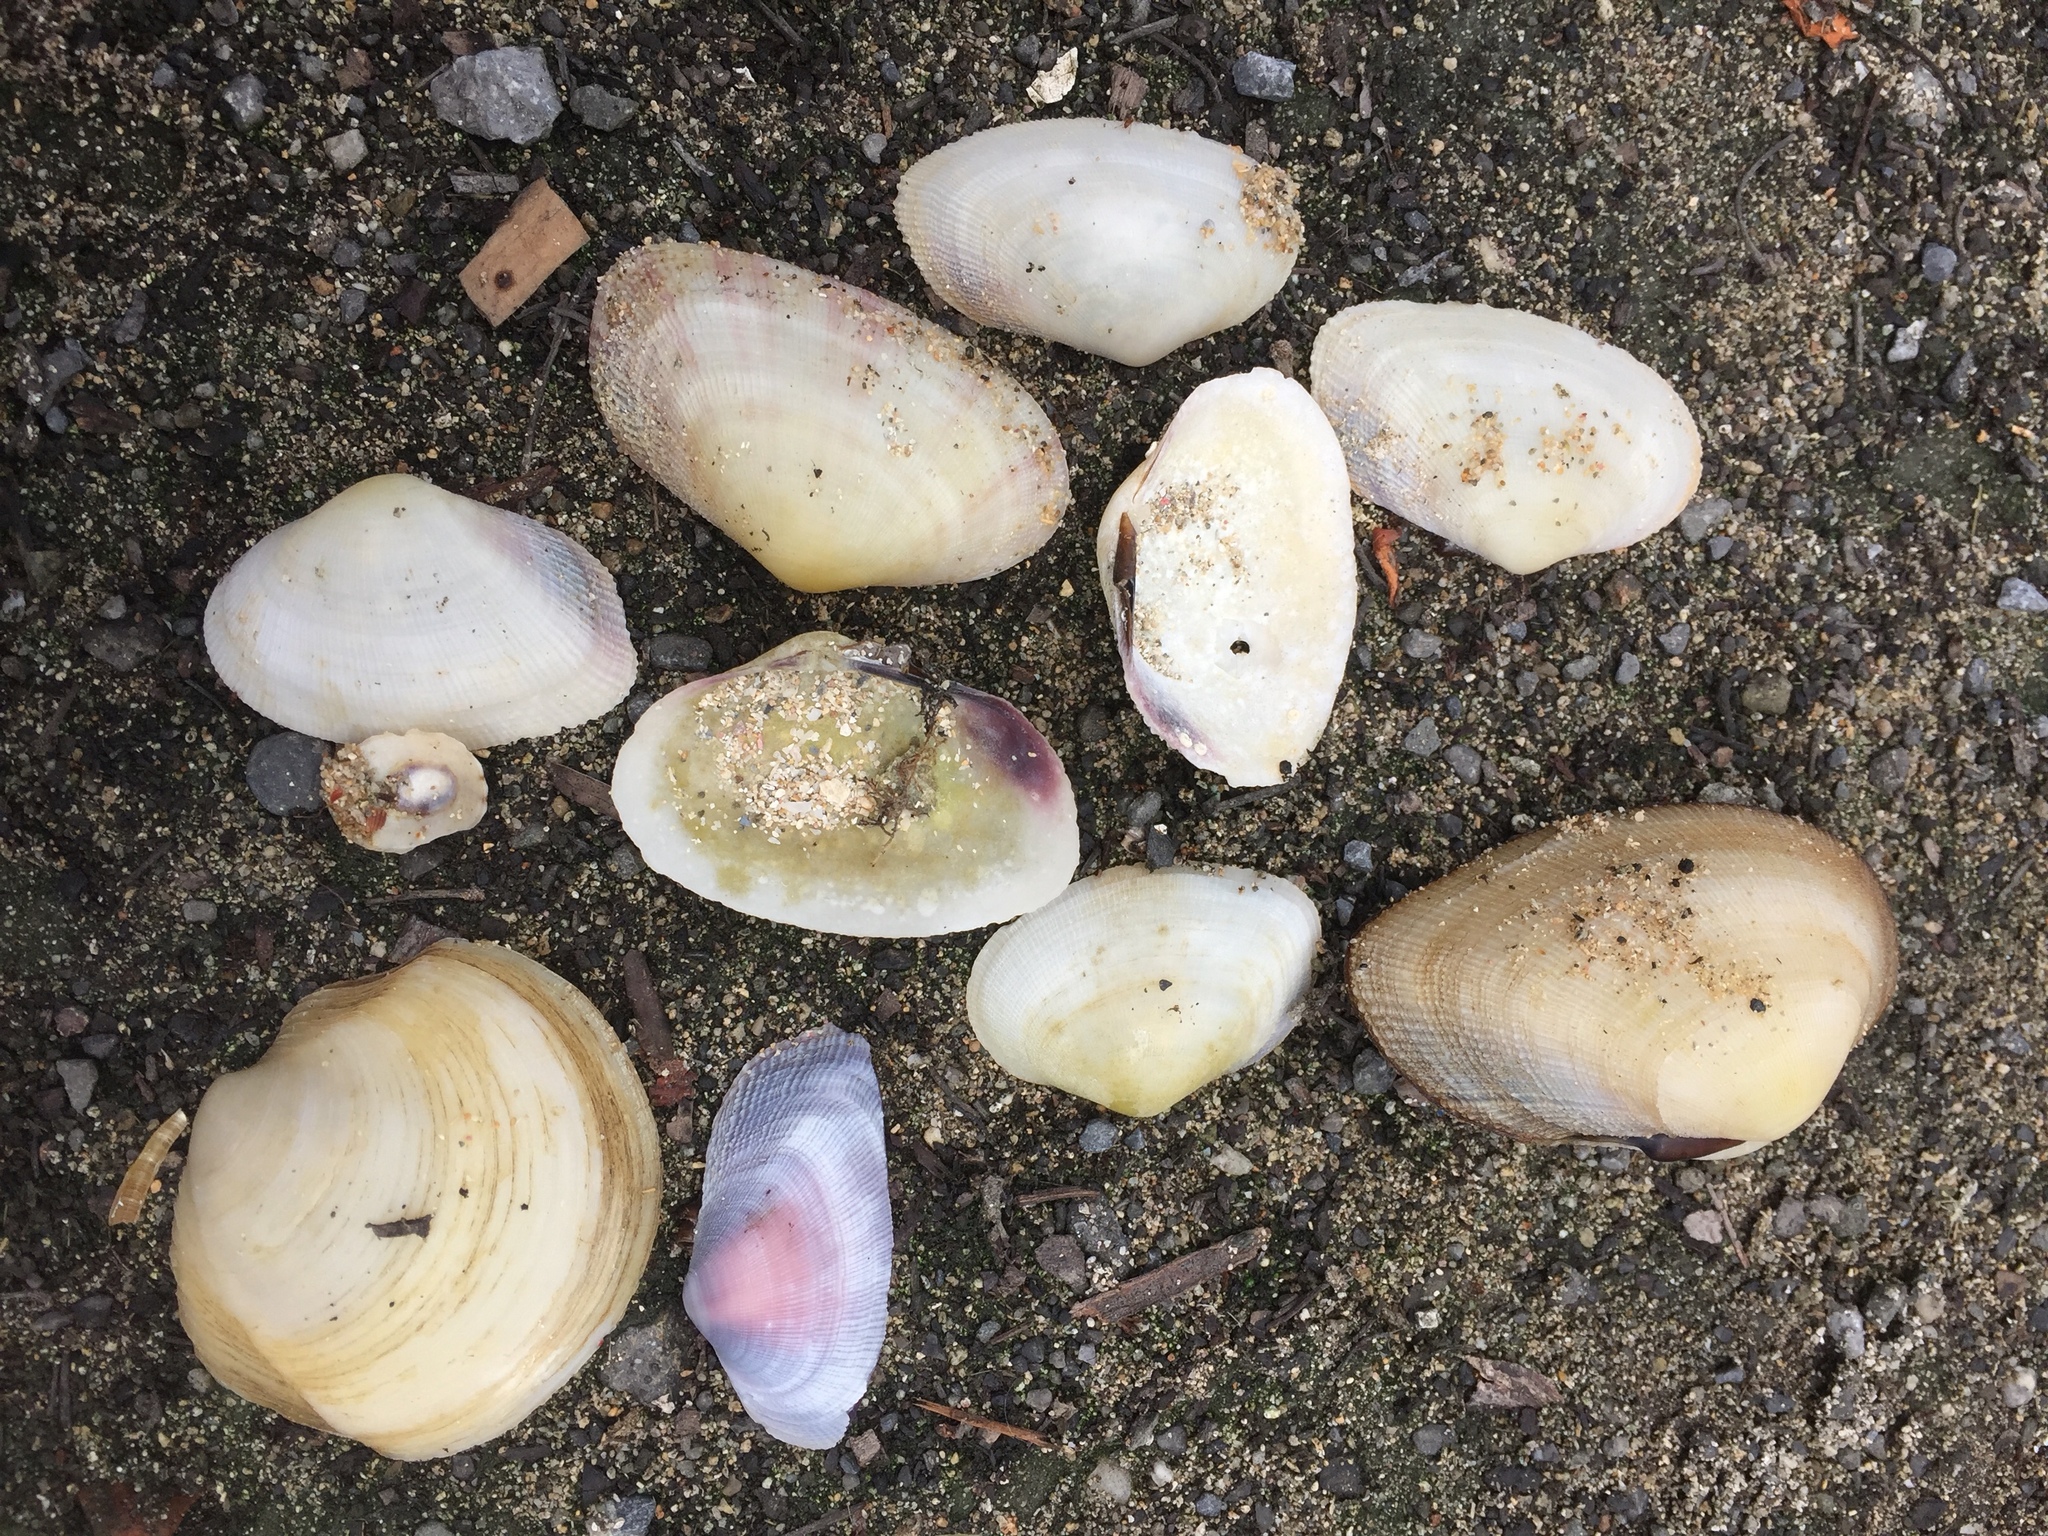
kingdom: Animalia
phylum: Mollusca
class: Bivalvia
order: Lucinida
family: Lucinidae
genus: Phacoides
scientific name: Phacoides pectinatus
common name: Thick lucine
